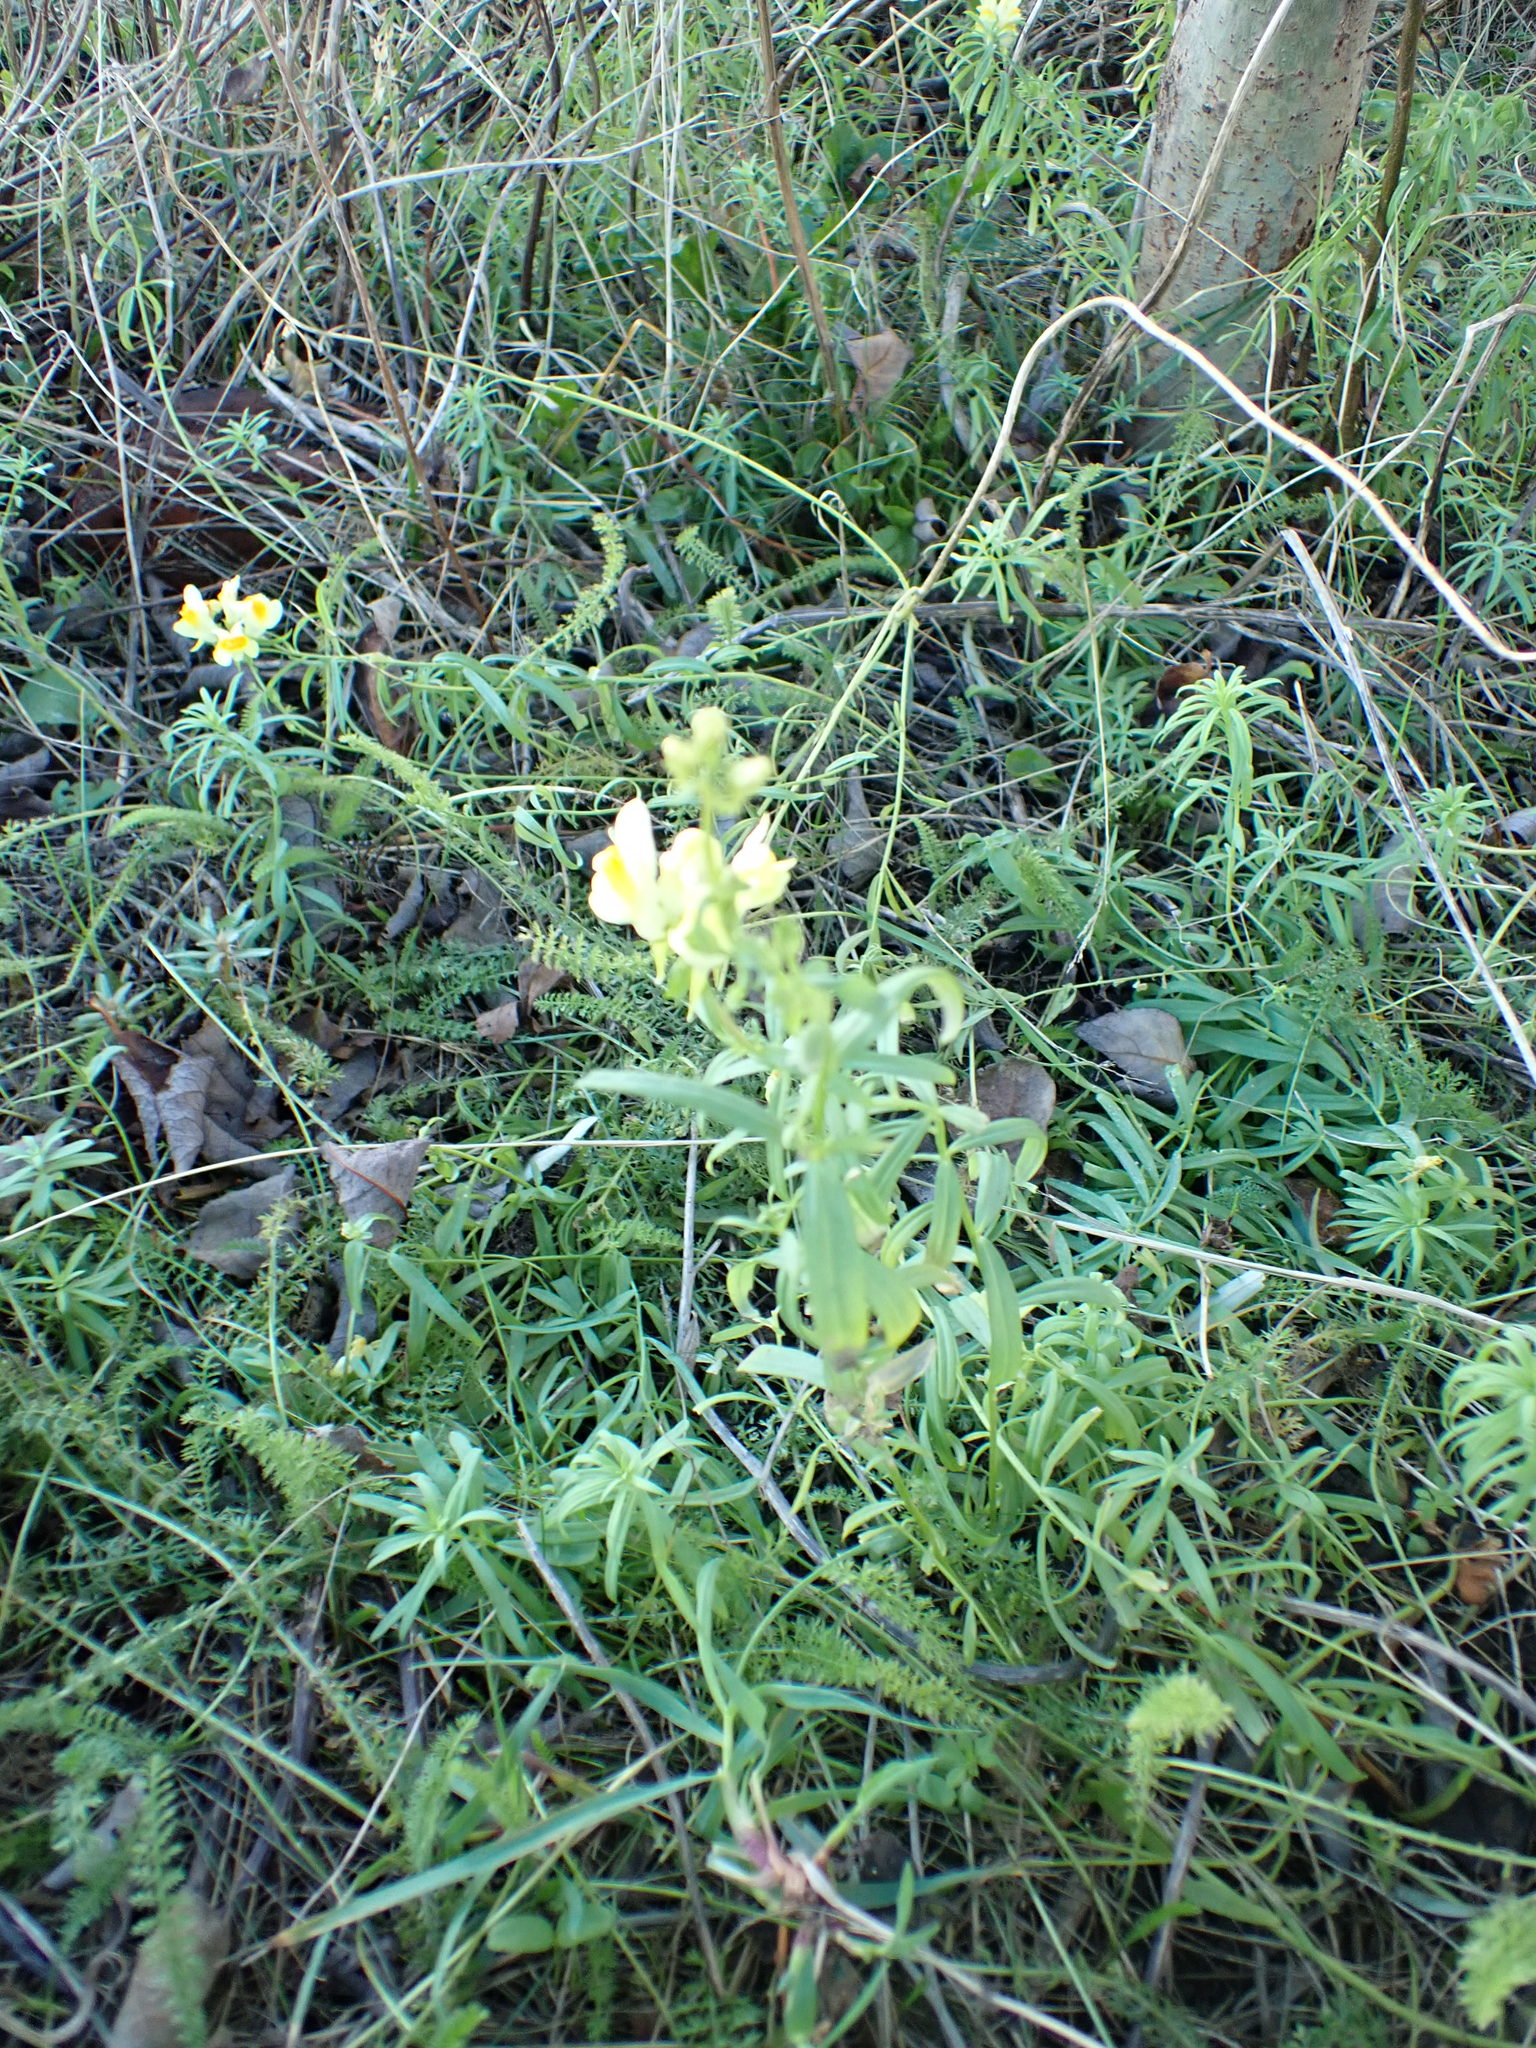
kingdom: Plantae
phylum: Tracheophyta
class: Magnoliopsida
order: Lamiales
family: Plantaginaceae
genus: Linaria
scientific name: Linaria vulgaris
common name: Butter and eggs
